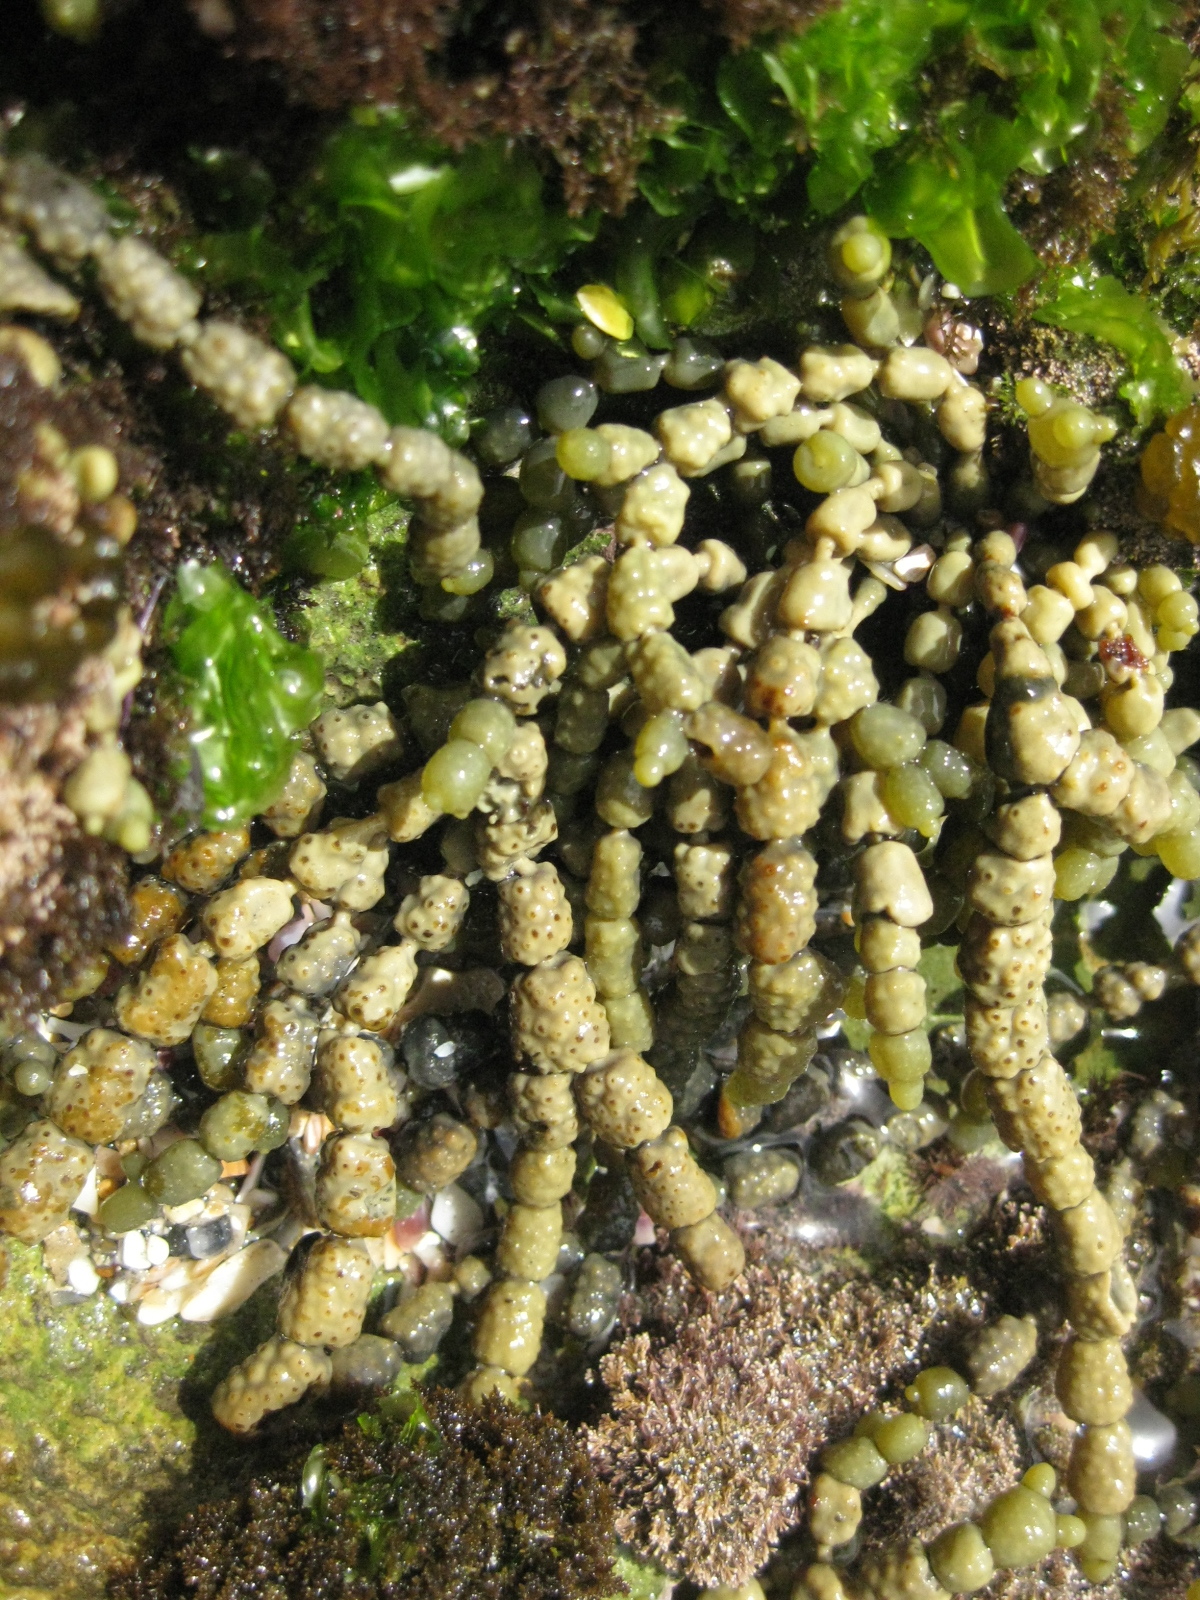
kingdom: Chromista
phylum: Ochrophyta
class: Phaeophyceae
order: Fucales
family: Hormosiraceae
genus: Hormosira
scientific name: Hormosira banksii
